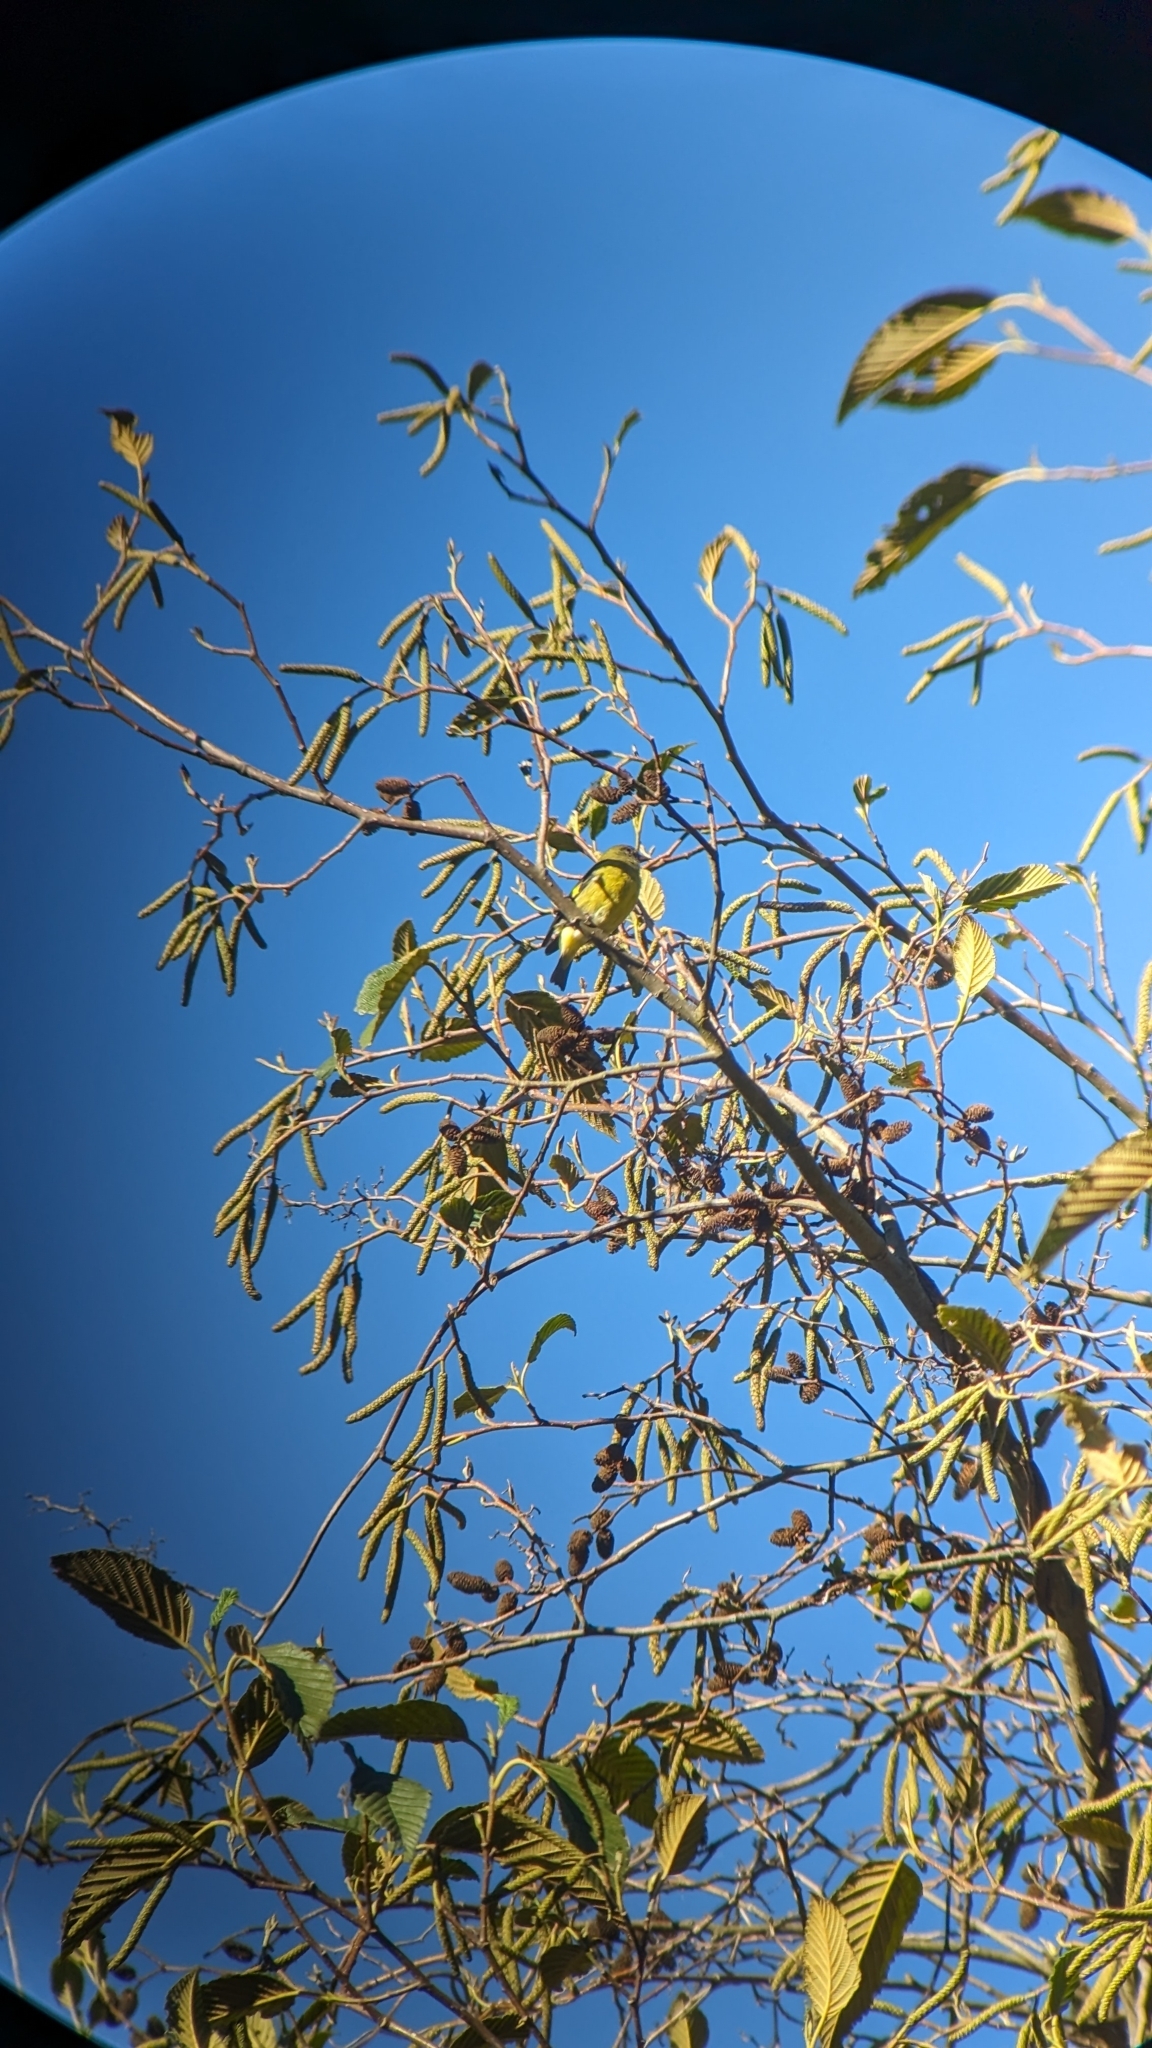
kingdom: Animalia
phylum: Chordata
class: Aves
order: Passeriformes
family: Fringillidae
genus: Spinus
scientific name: Spinus xanthogastrus
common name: Yellow-bellied siskin
